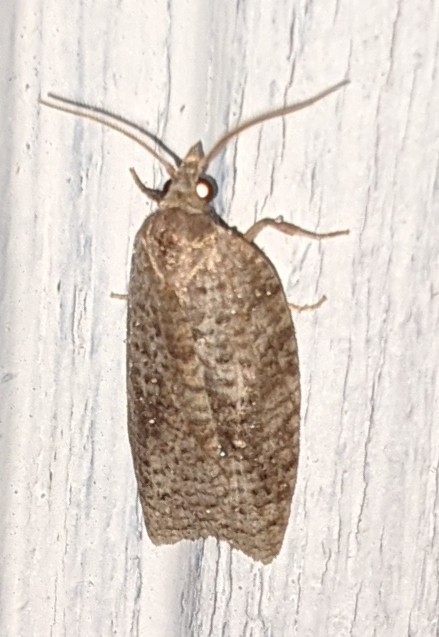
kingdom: Animalia
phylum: Arthropoda
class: Insecta
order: Lepidoptera
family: Tortricidae
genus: Amorbia
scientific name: Amorbia humerosana
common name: White-lined leafroller moth
